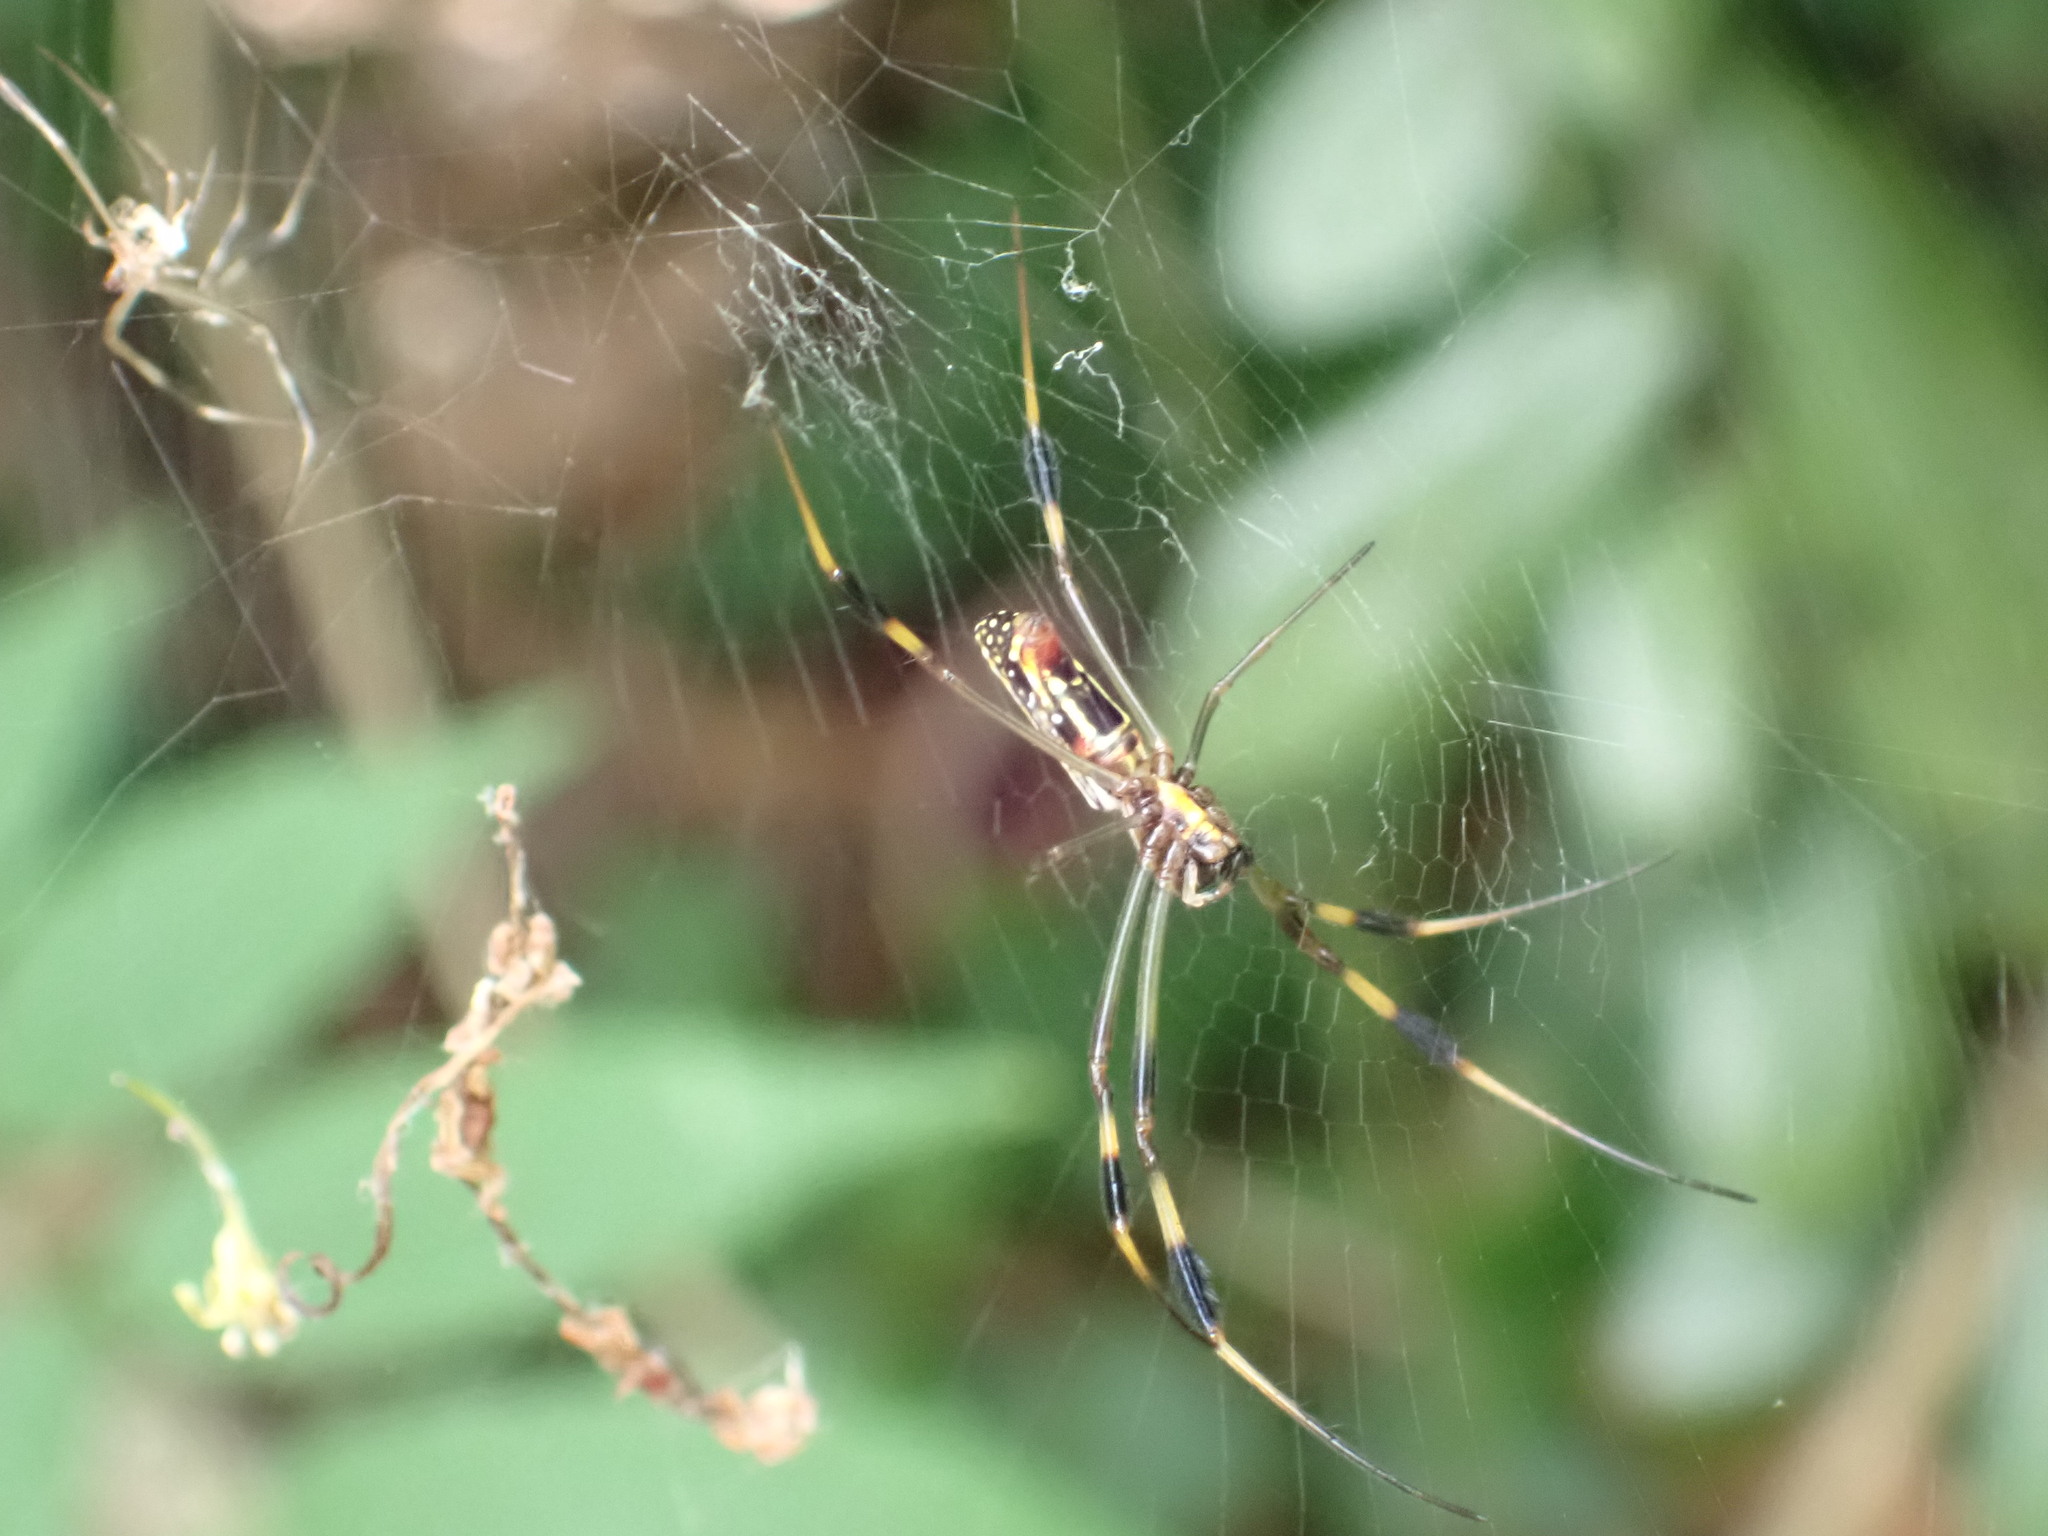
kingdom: Animalia
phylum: Arthropoda
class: Arachnida
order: Araneae
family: Araneidae
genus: Trichonephila
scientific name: Trichonephila clavipes
